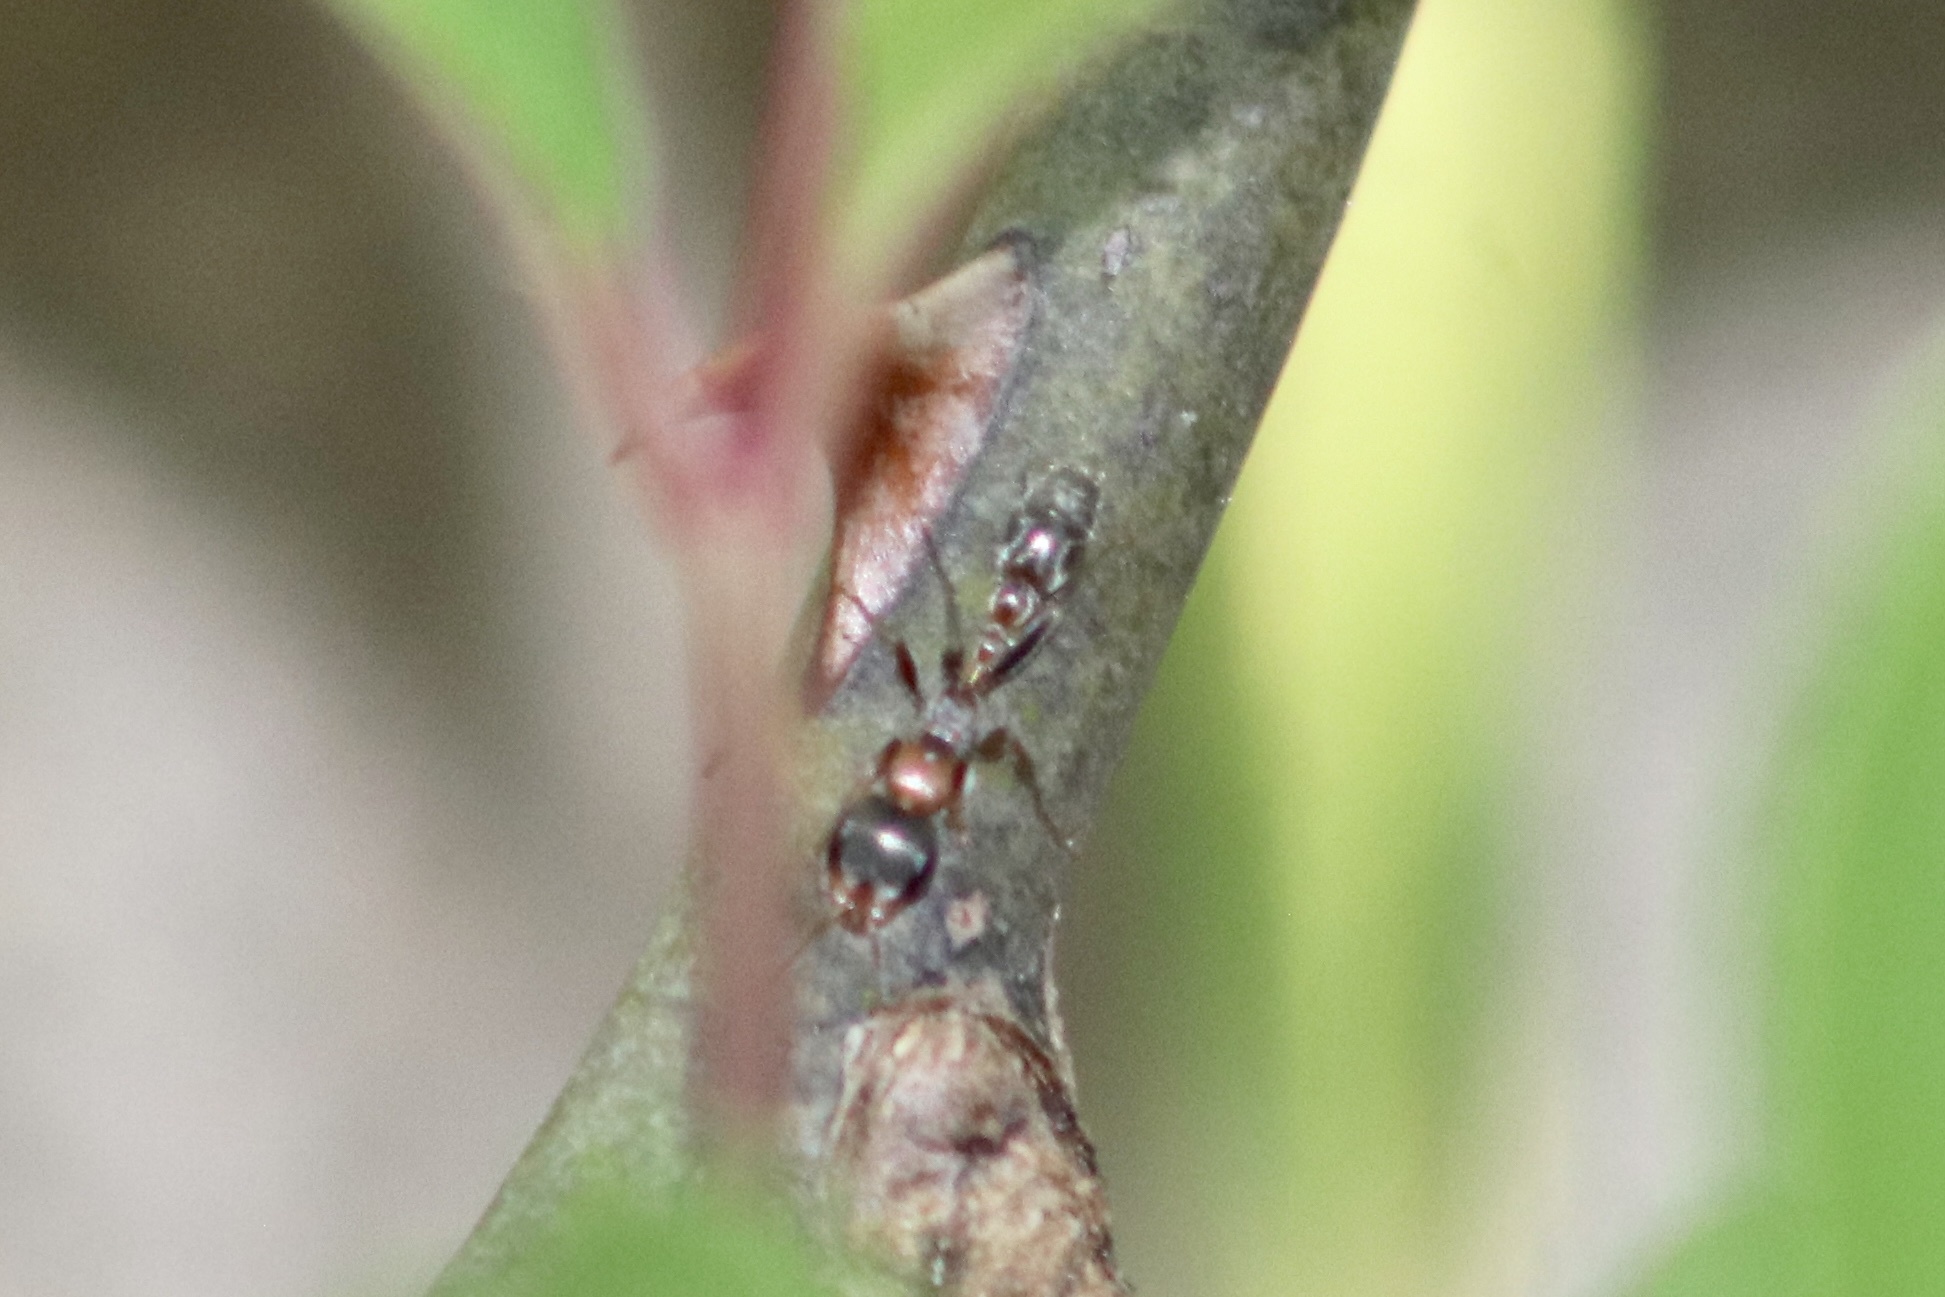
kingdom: Animalia
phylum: Arthropoda
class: Insecta
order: Hymenoptera
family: Formicidae
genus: Pseudomyrmex
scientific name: Pseudomyrmex gracilis
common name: Graceful twig ant
